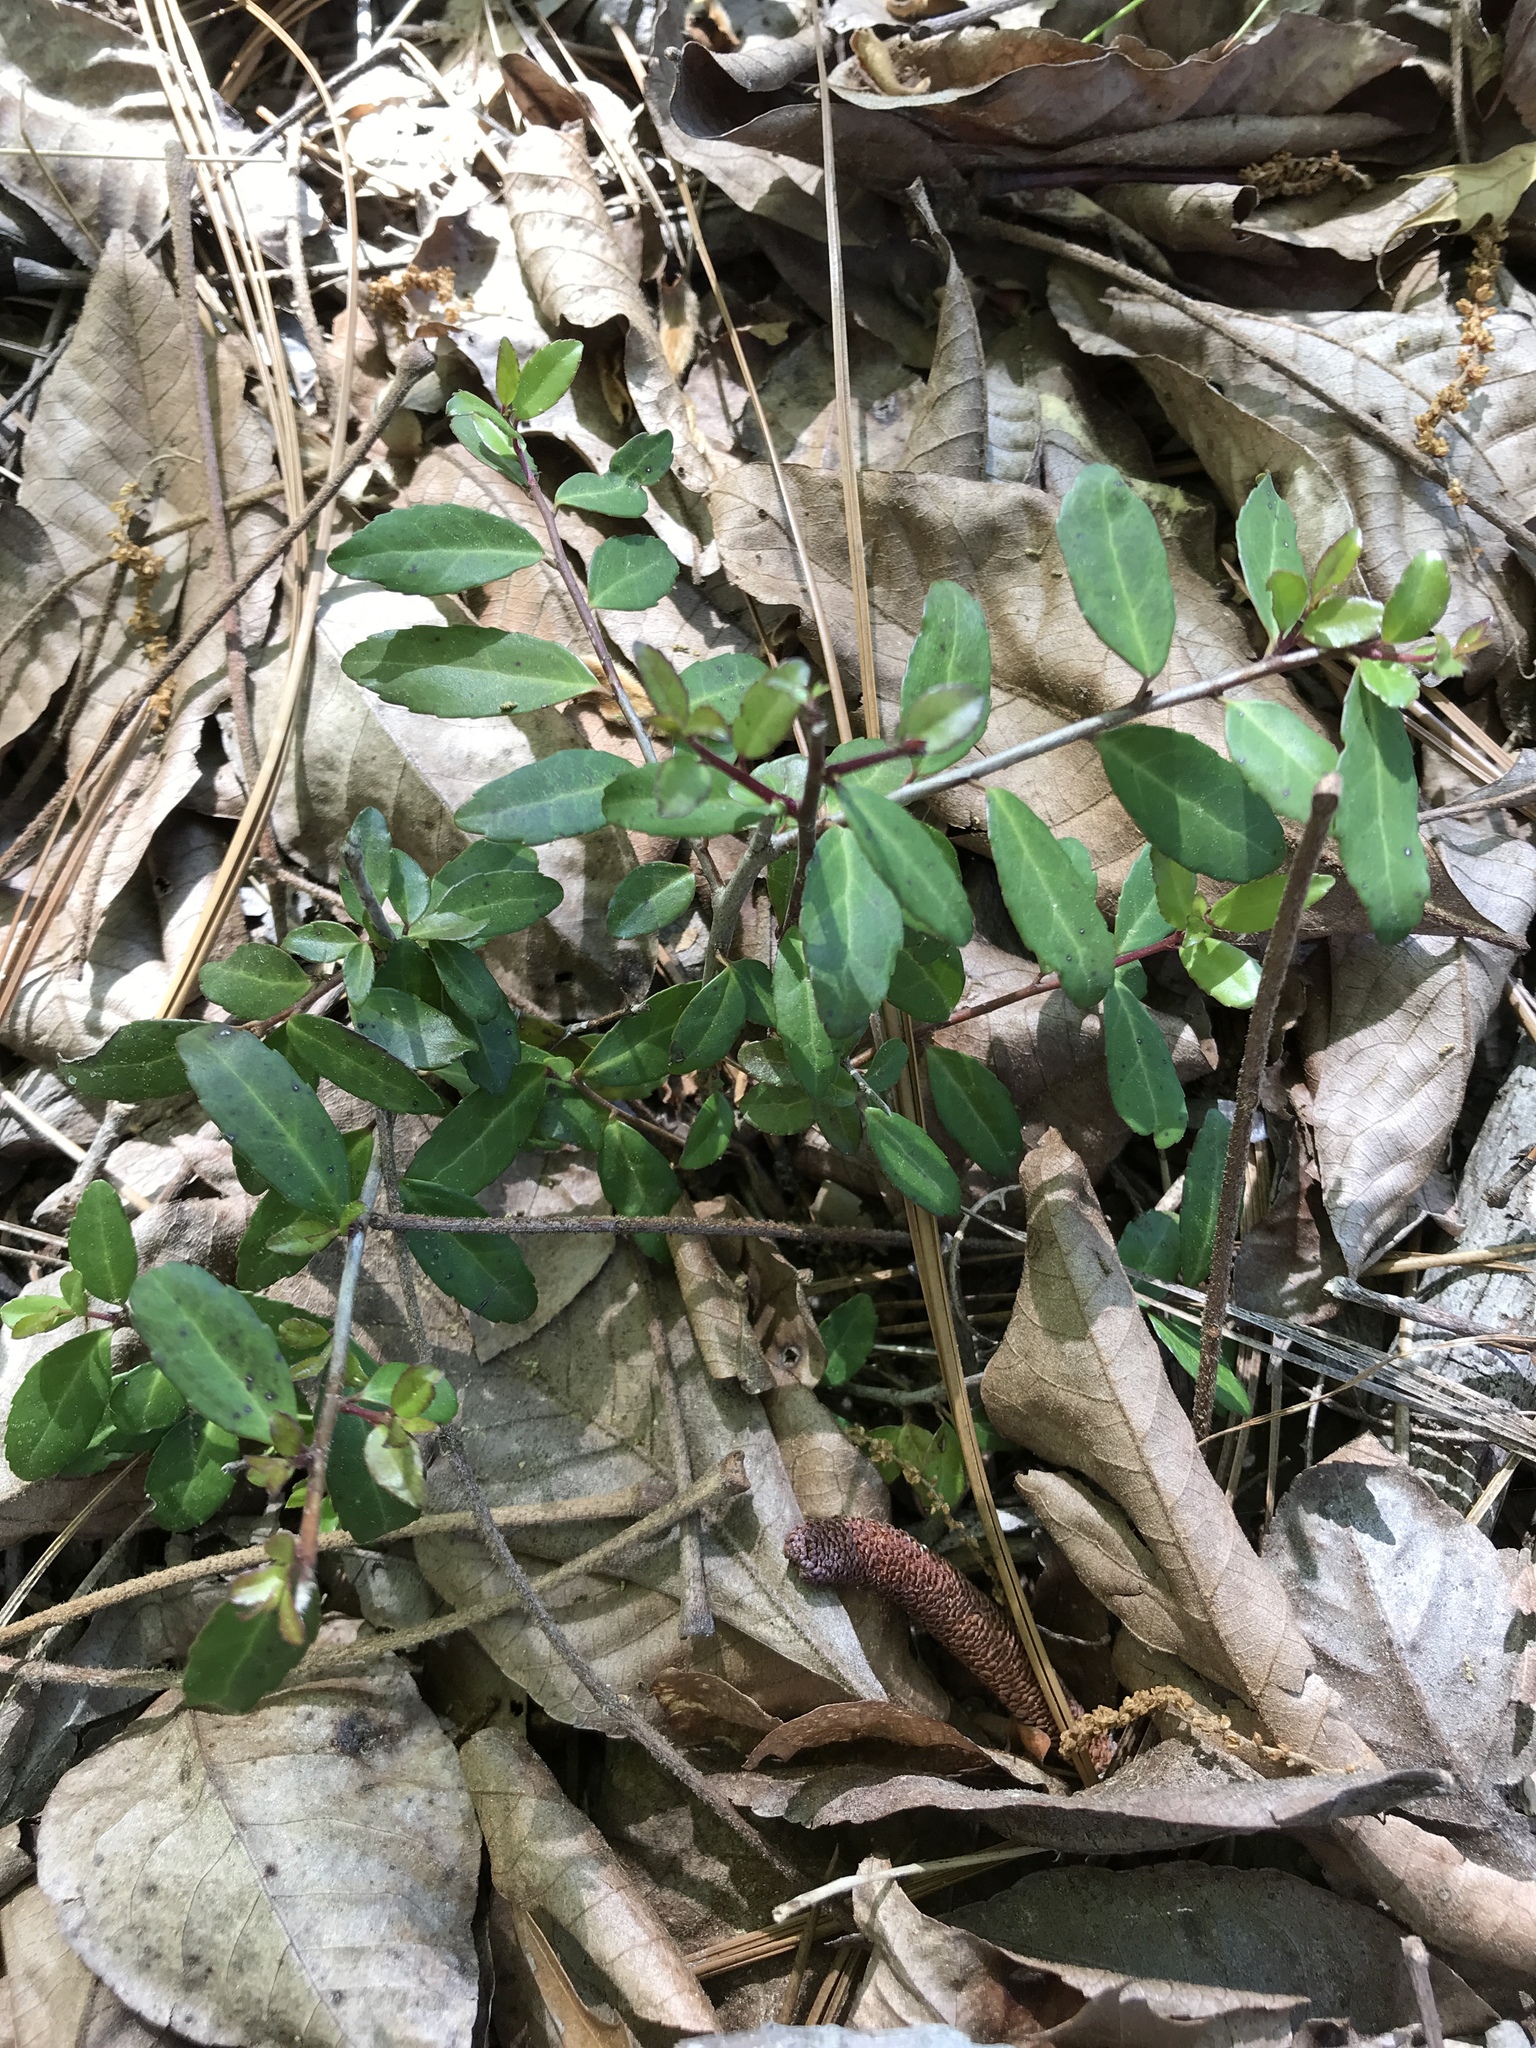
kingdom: Plantae
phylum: Tracheophyta
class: Magnoliopsida
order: Aquifoliales
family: Aquifoliaceae
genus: Ilex
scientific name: Ilex vomitoria
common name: Yaupon holly
